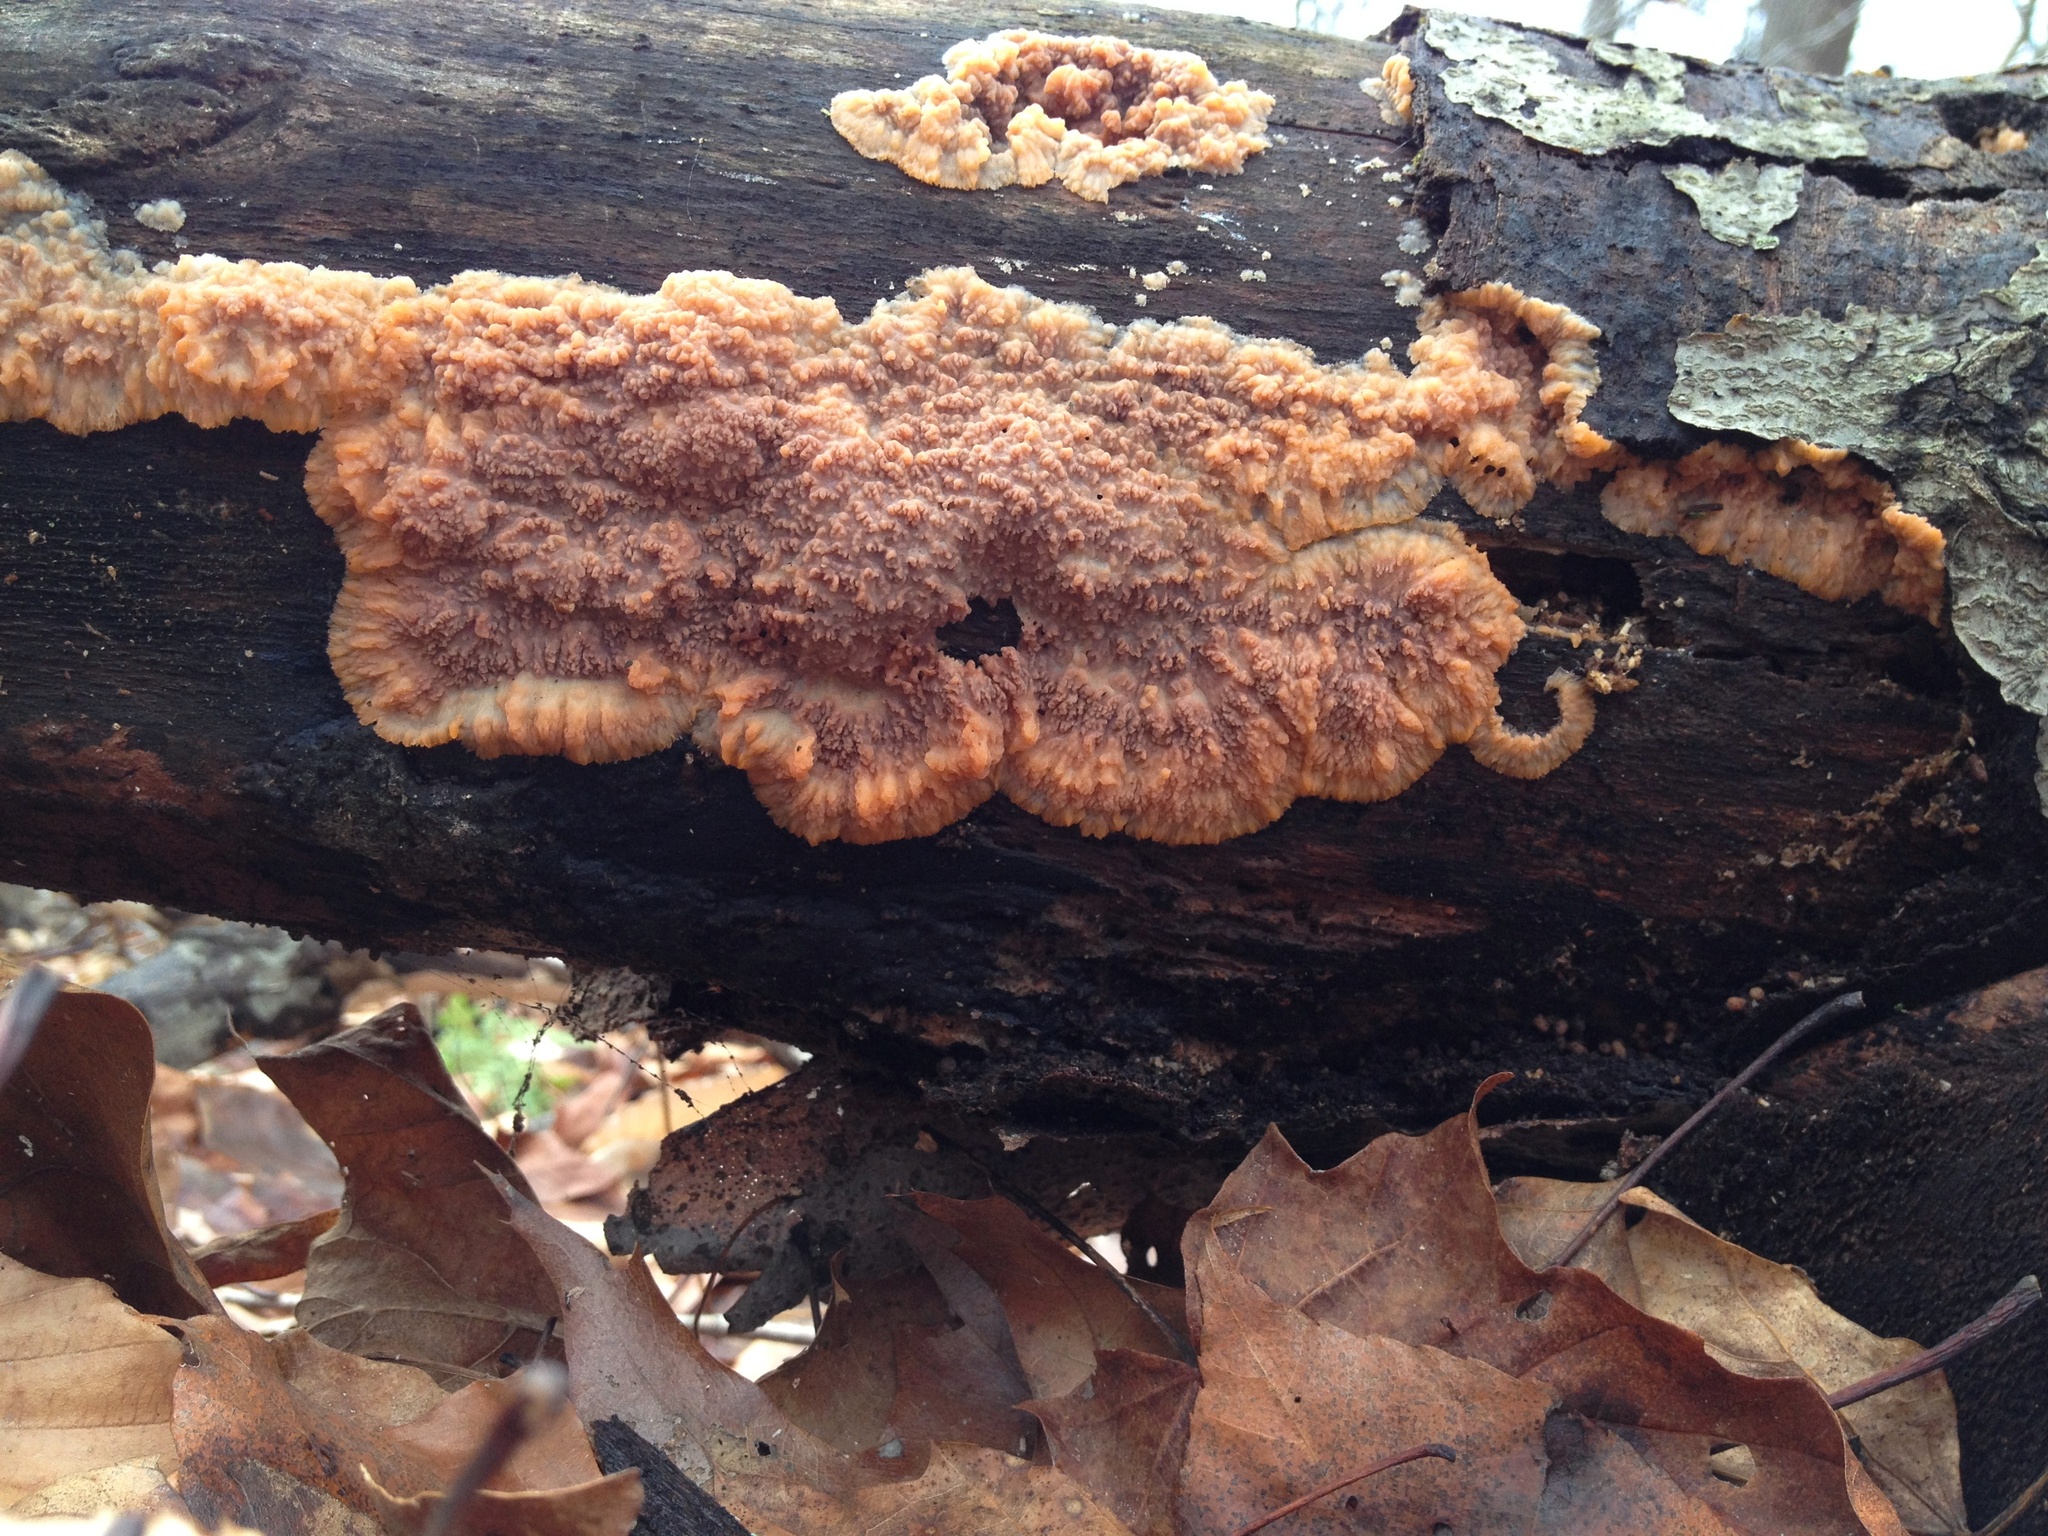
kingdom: Fungi
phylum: Basidiomycota
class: Agaricomycetes
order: Polyporales
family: Meruliaceae
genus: Phlebia
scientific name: Phlebia radiata
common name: Wrinkled crust
